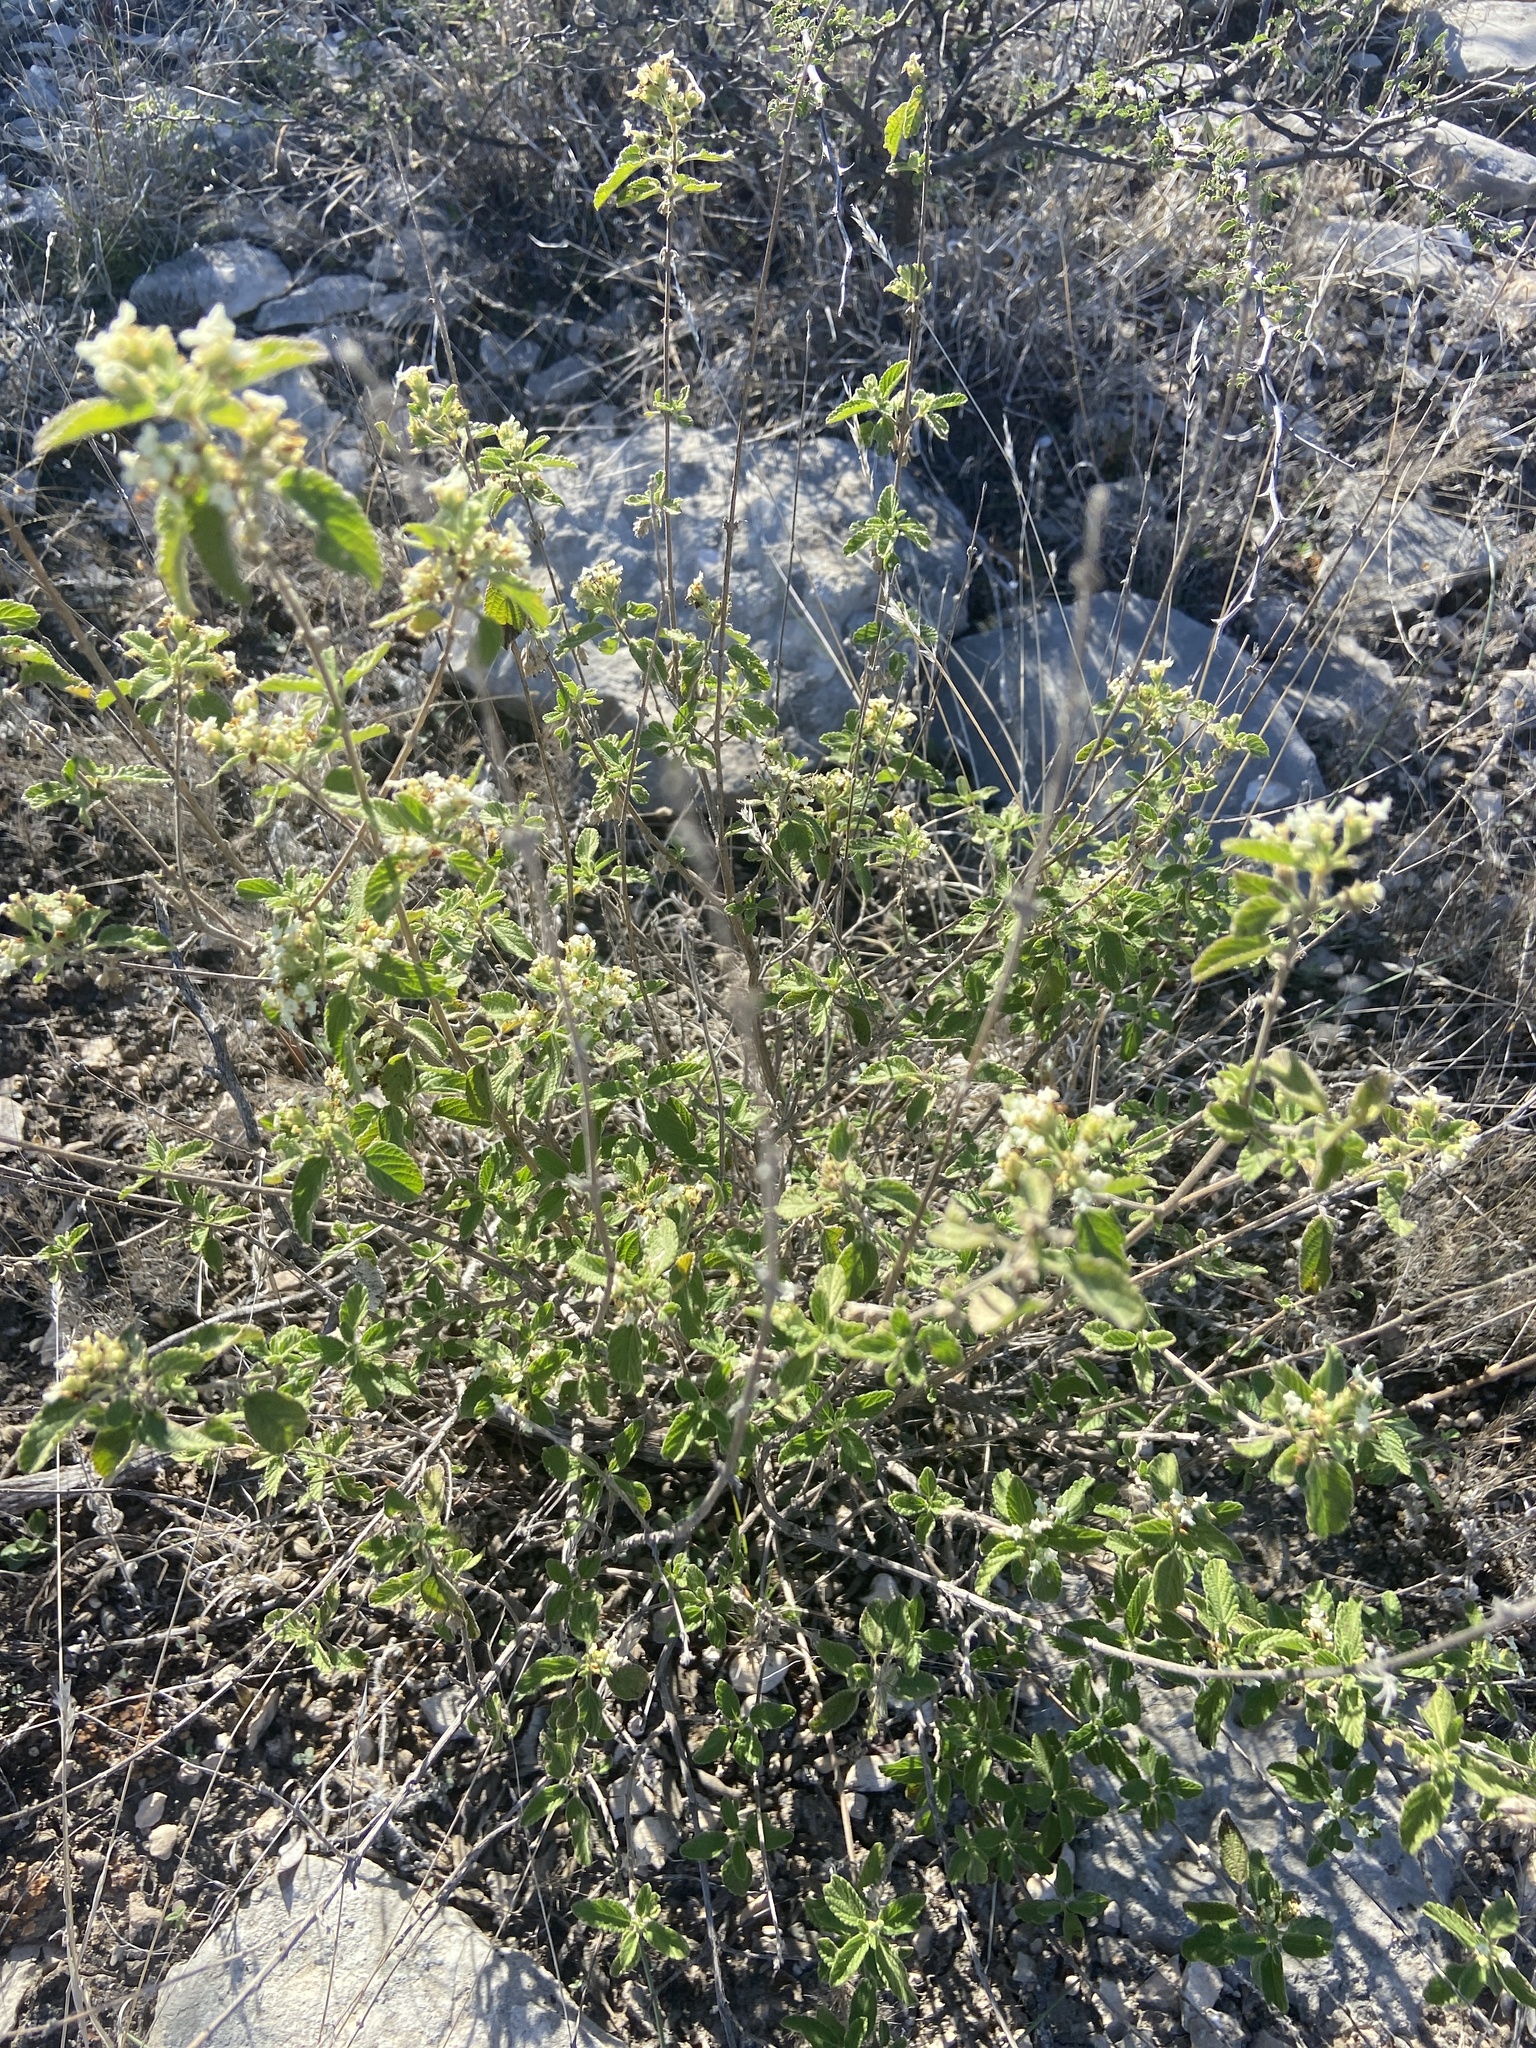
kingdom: Plantae
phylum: Tracheophyta
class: Magnoliopsida
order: Lamiales
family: Verbenaceae
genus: Lippia
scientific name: Lippia origanoides
